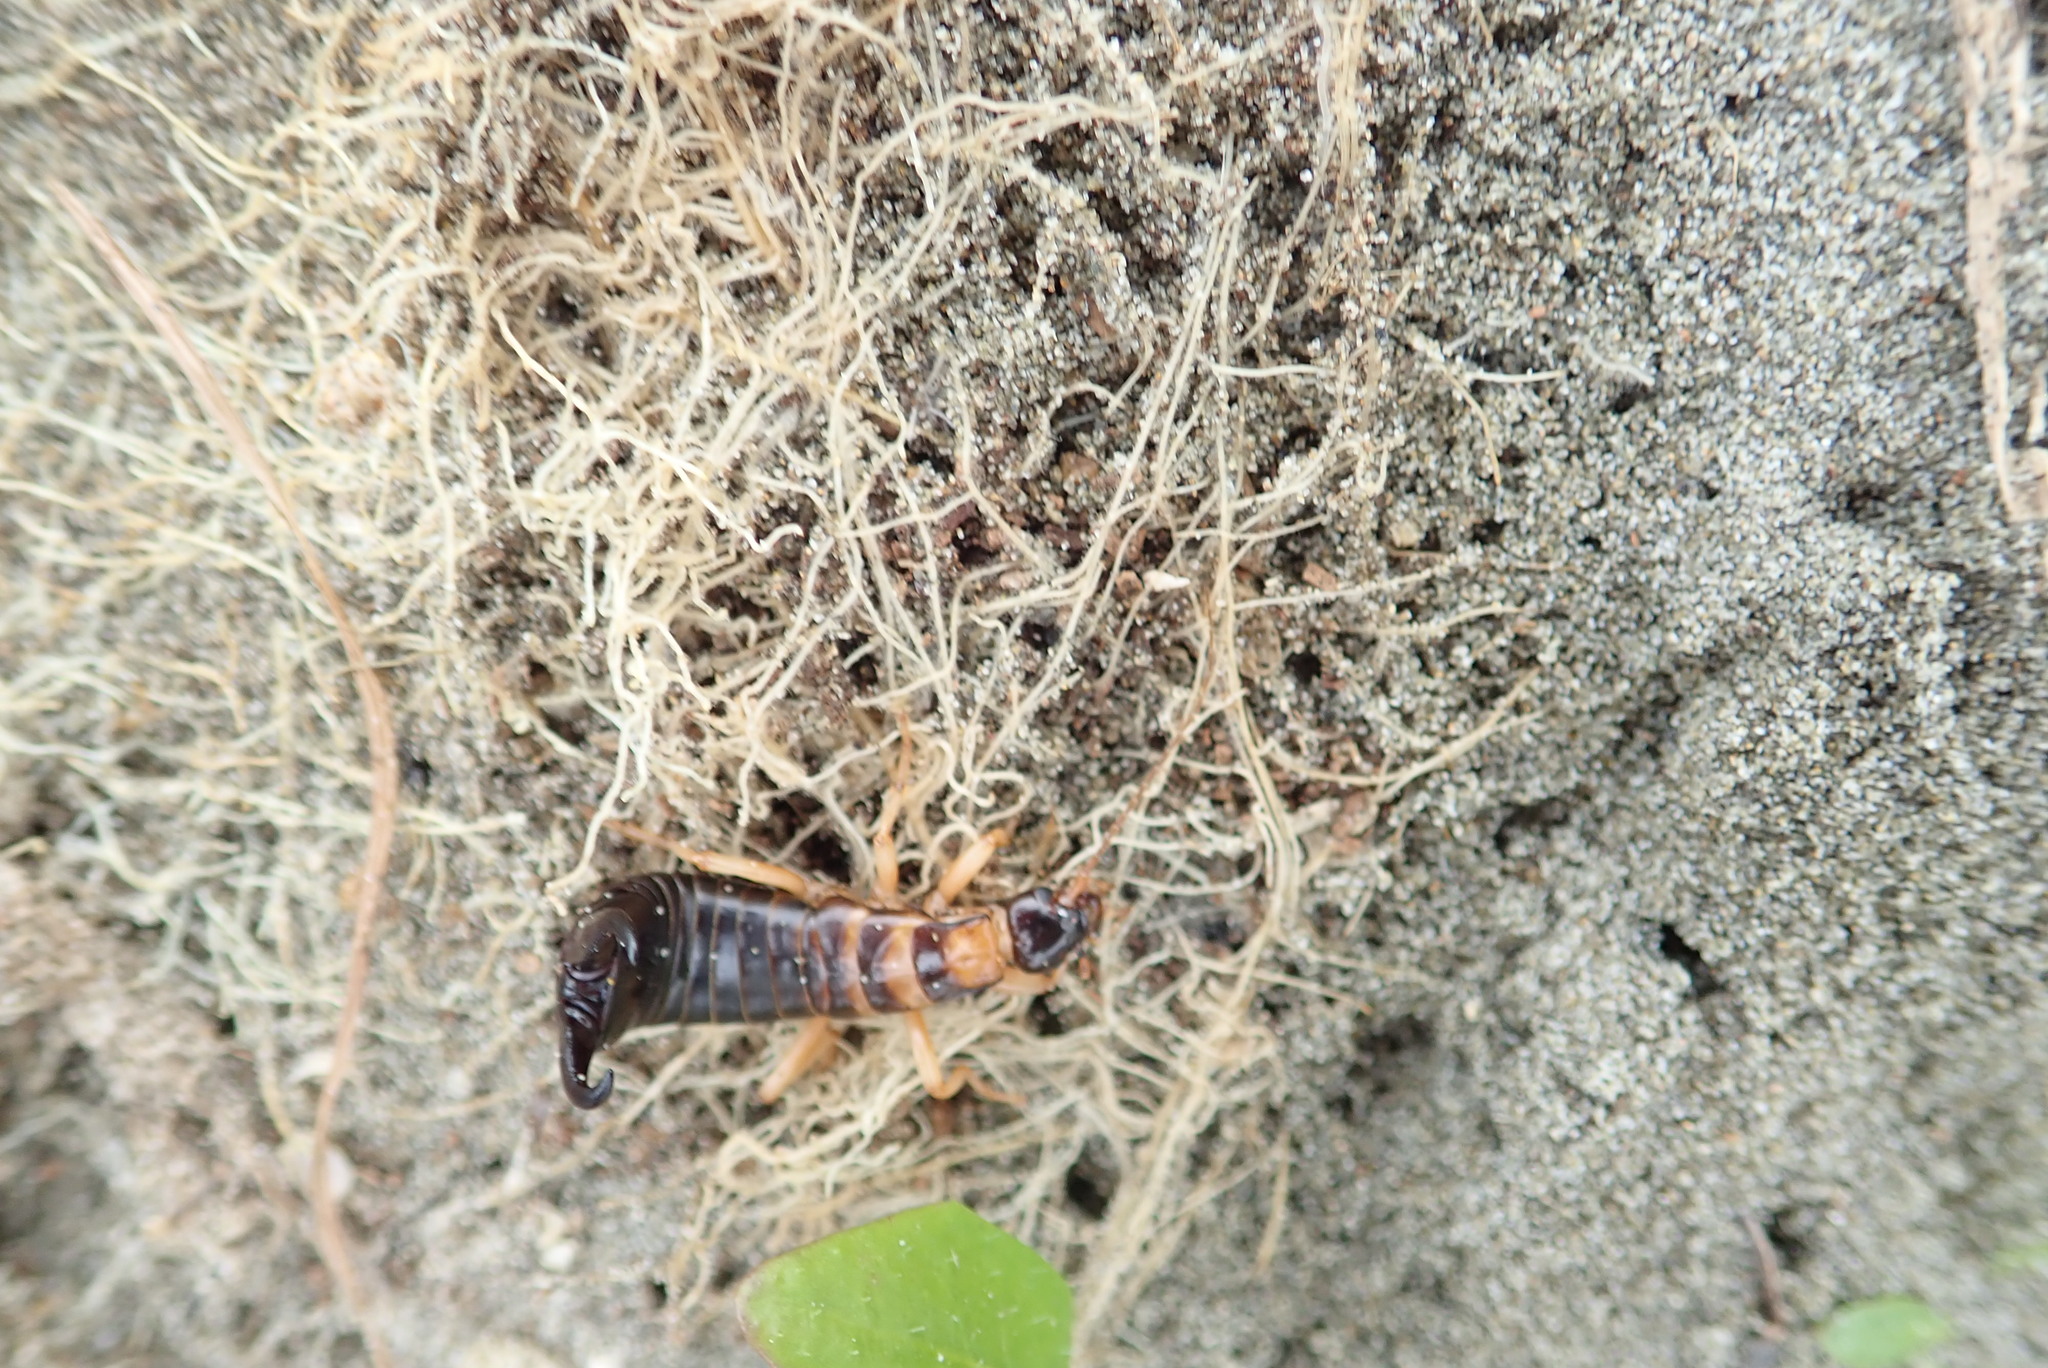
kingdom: Animalia
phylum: Arthropoda
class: Insecta
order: Dermaptera
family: Anisolabididae
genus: Anisolabis
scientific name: Anisolabis littorea
